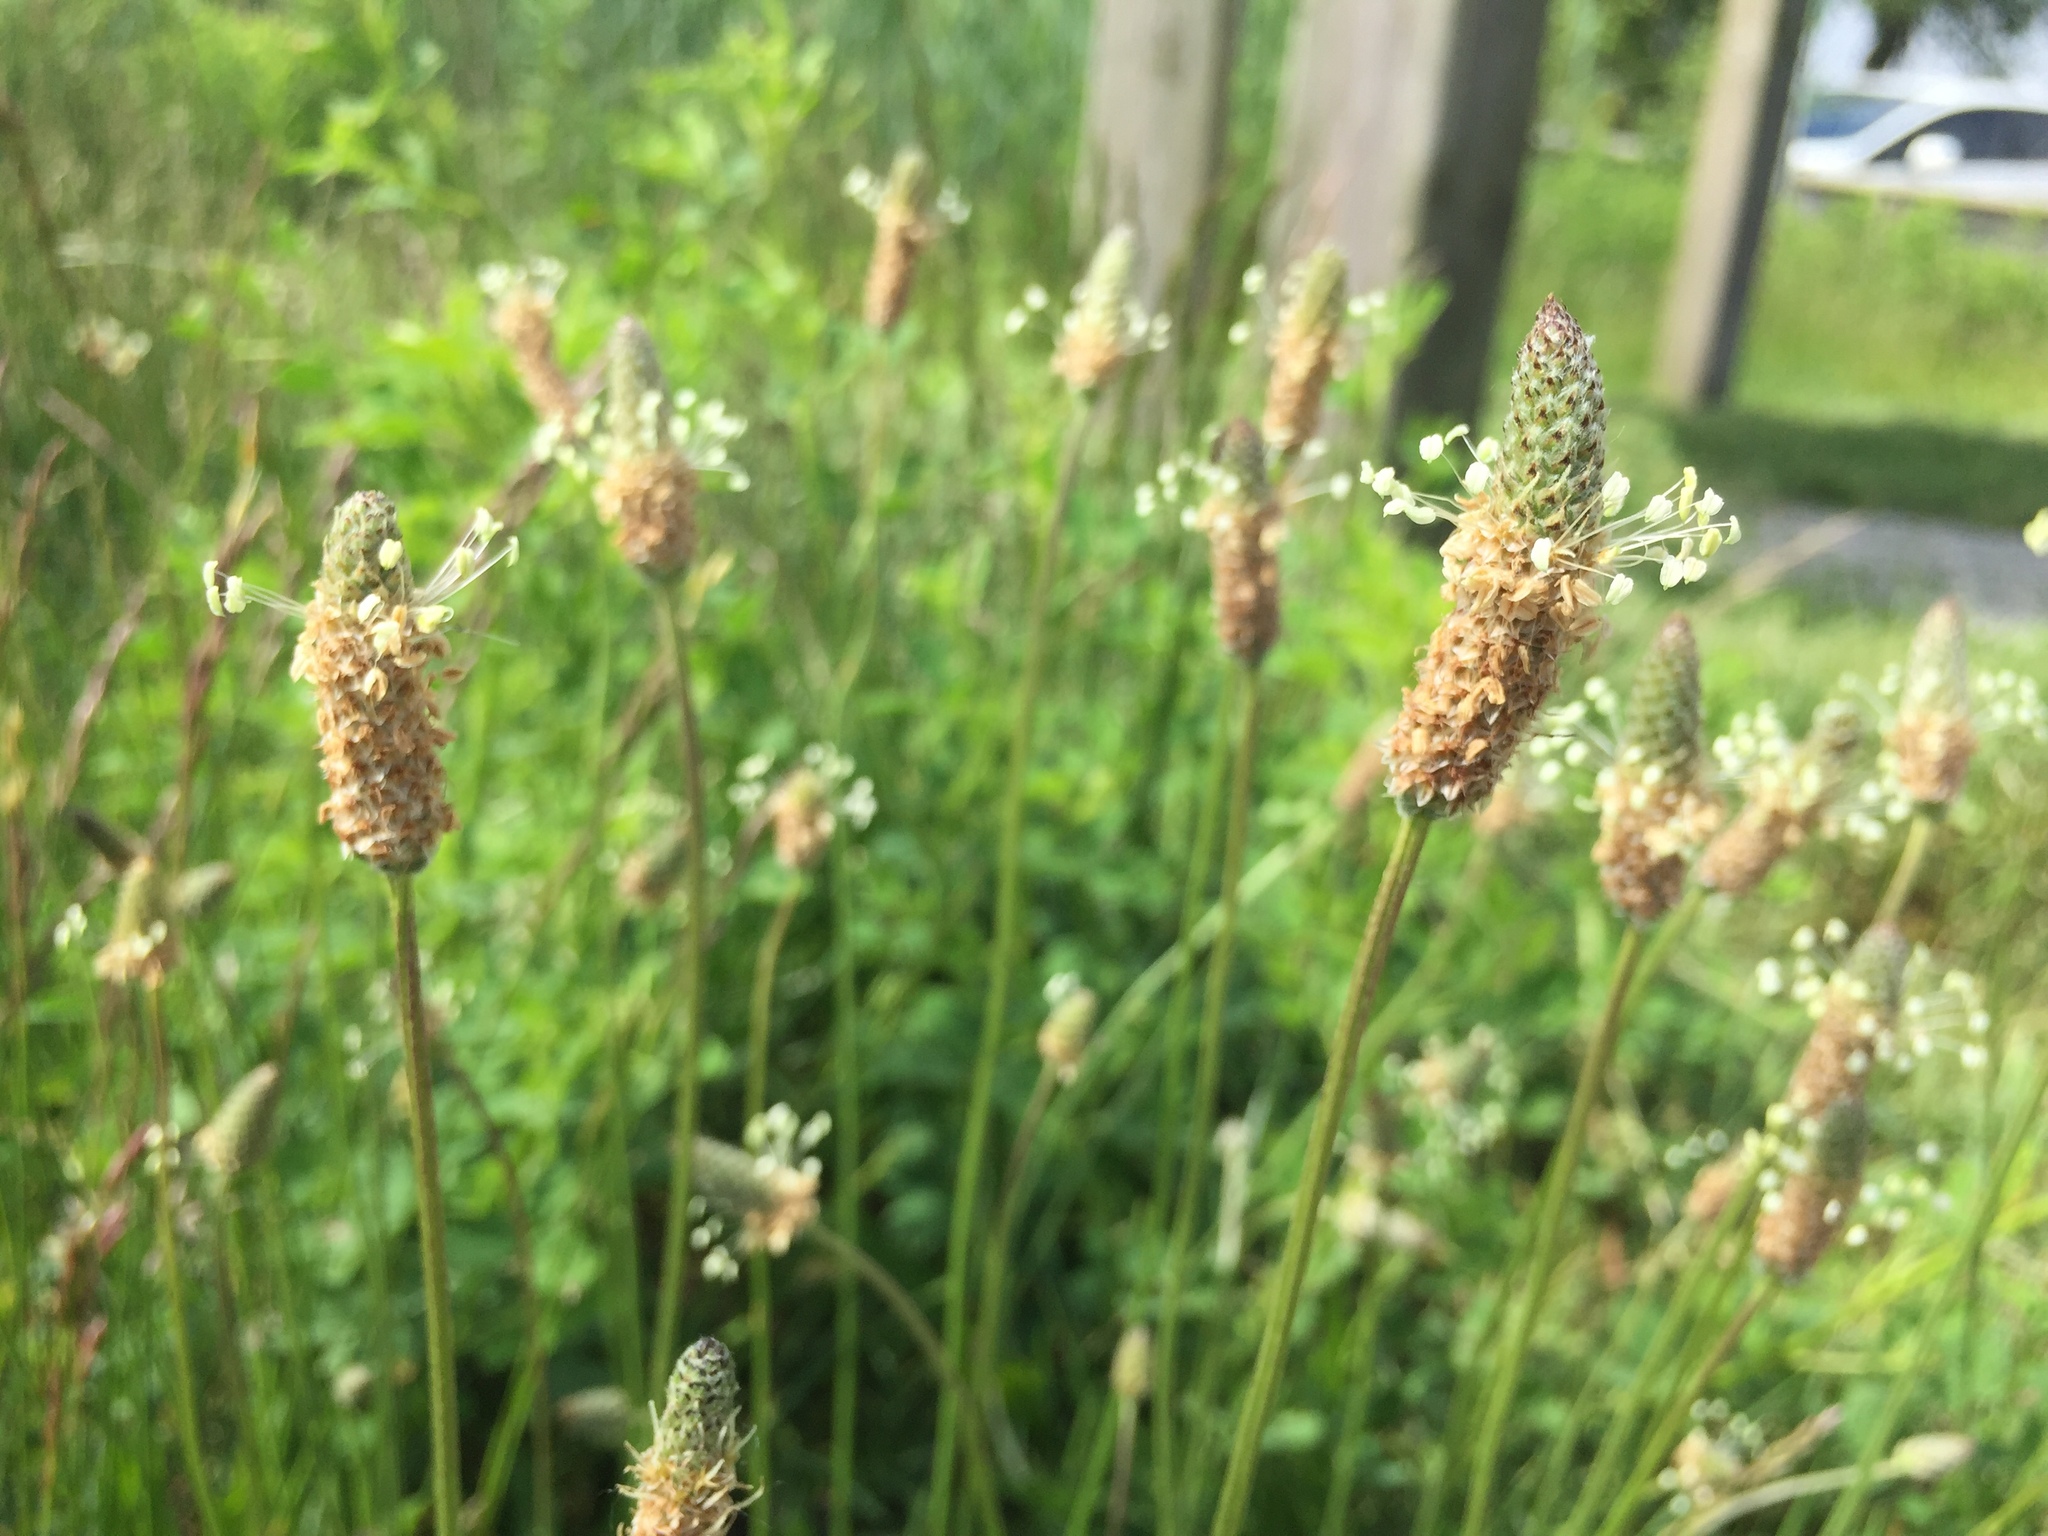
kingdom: Plantae
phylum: Tracheophyta
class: Magnoliopsida
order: Lamiales
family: Plantaginaceae
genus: Plantago
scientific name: Plantago lanceolata
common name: Ribwort plantain
